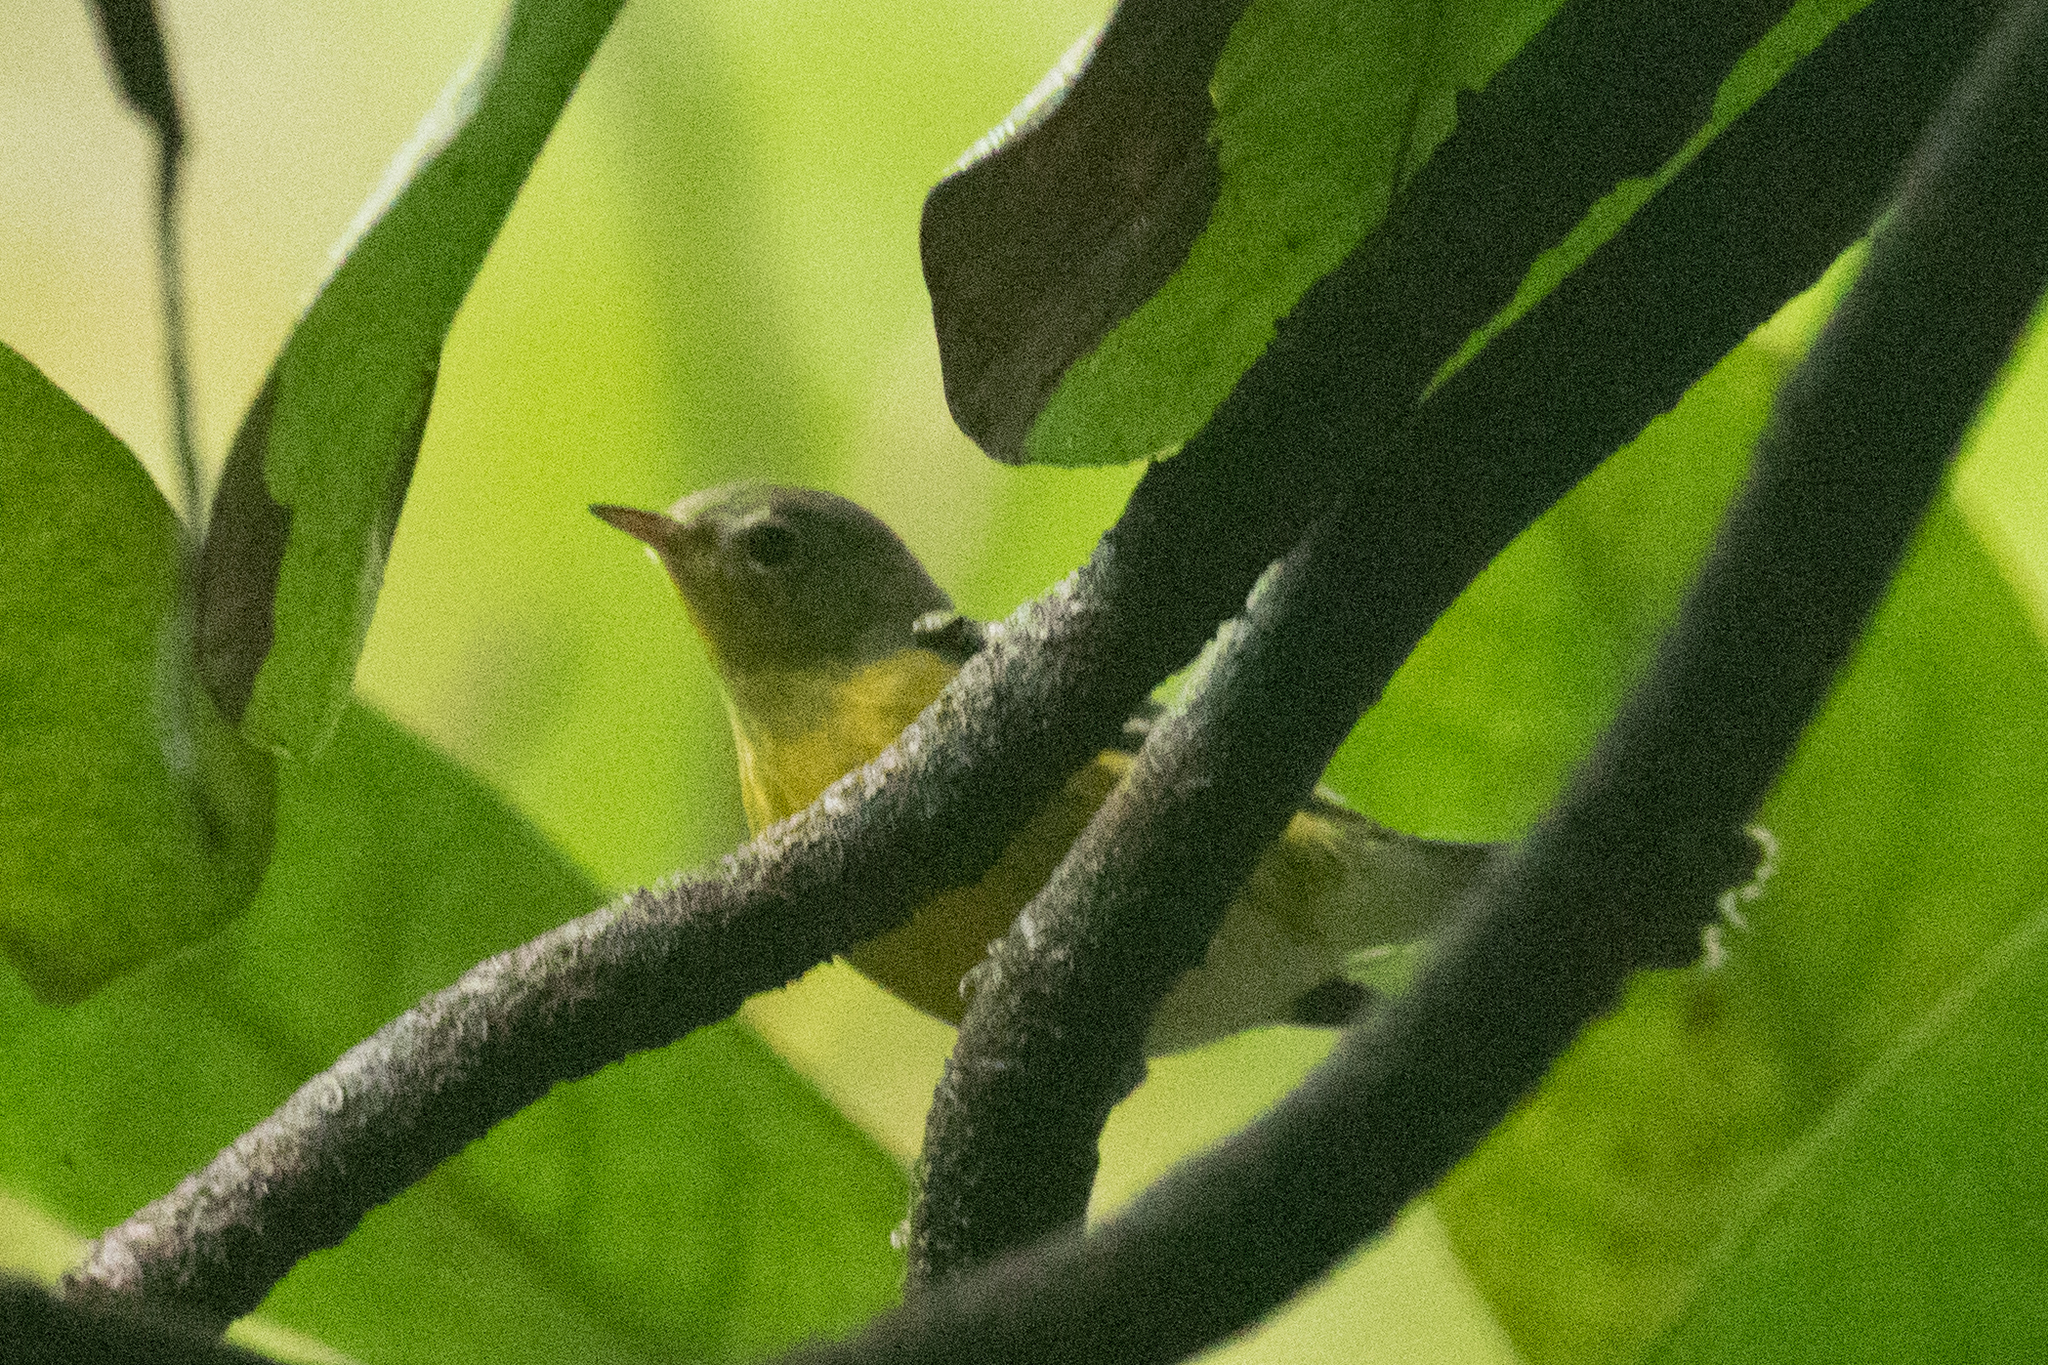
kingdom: Animalia
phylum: Chordata
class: Aves
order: Passeriformes
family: Parulidae
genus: Setophaga
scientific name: Setophaga magnolia
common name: Magnolia warbler
